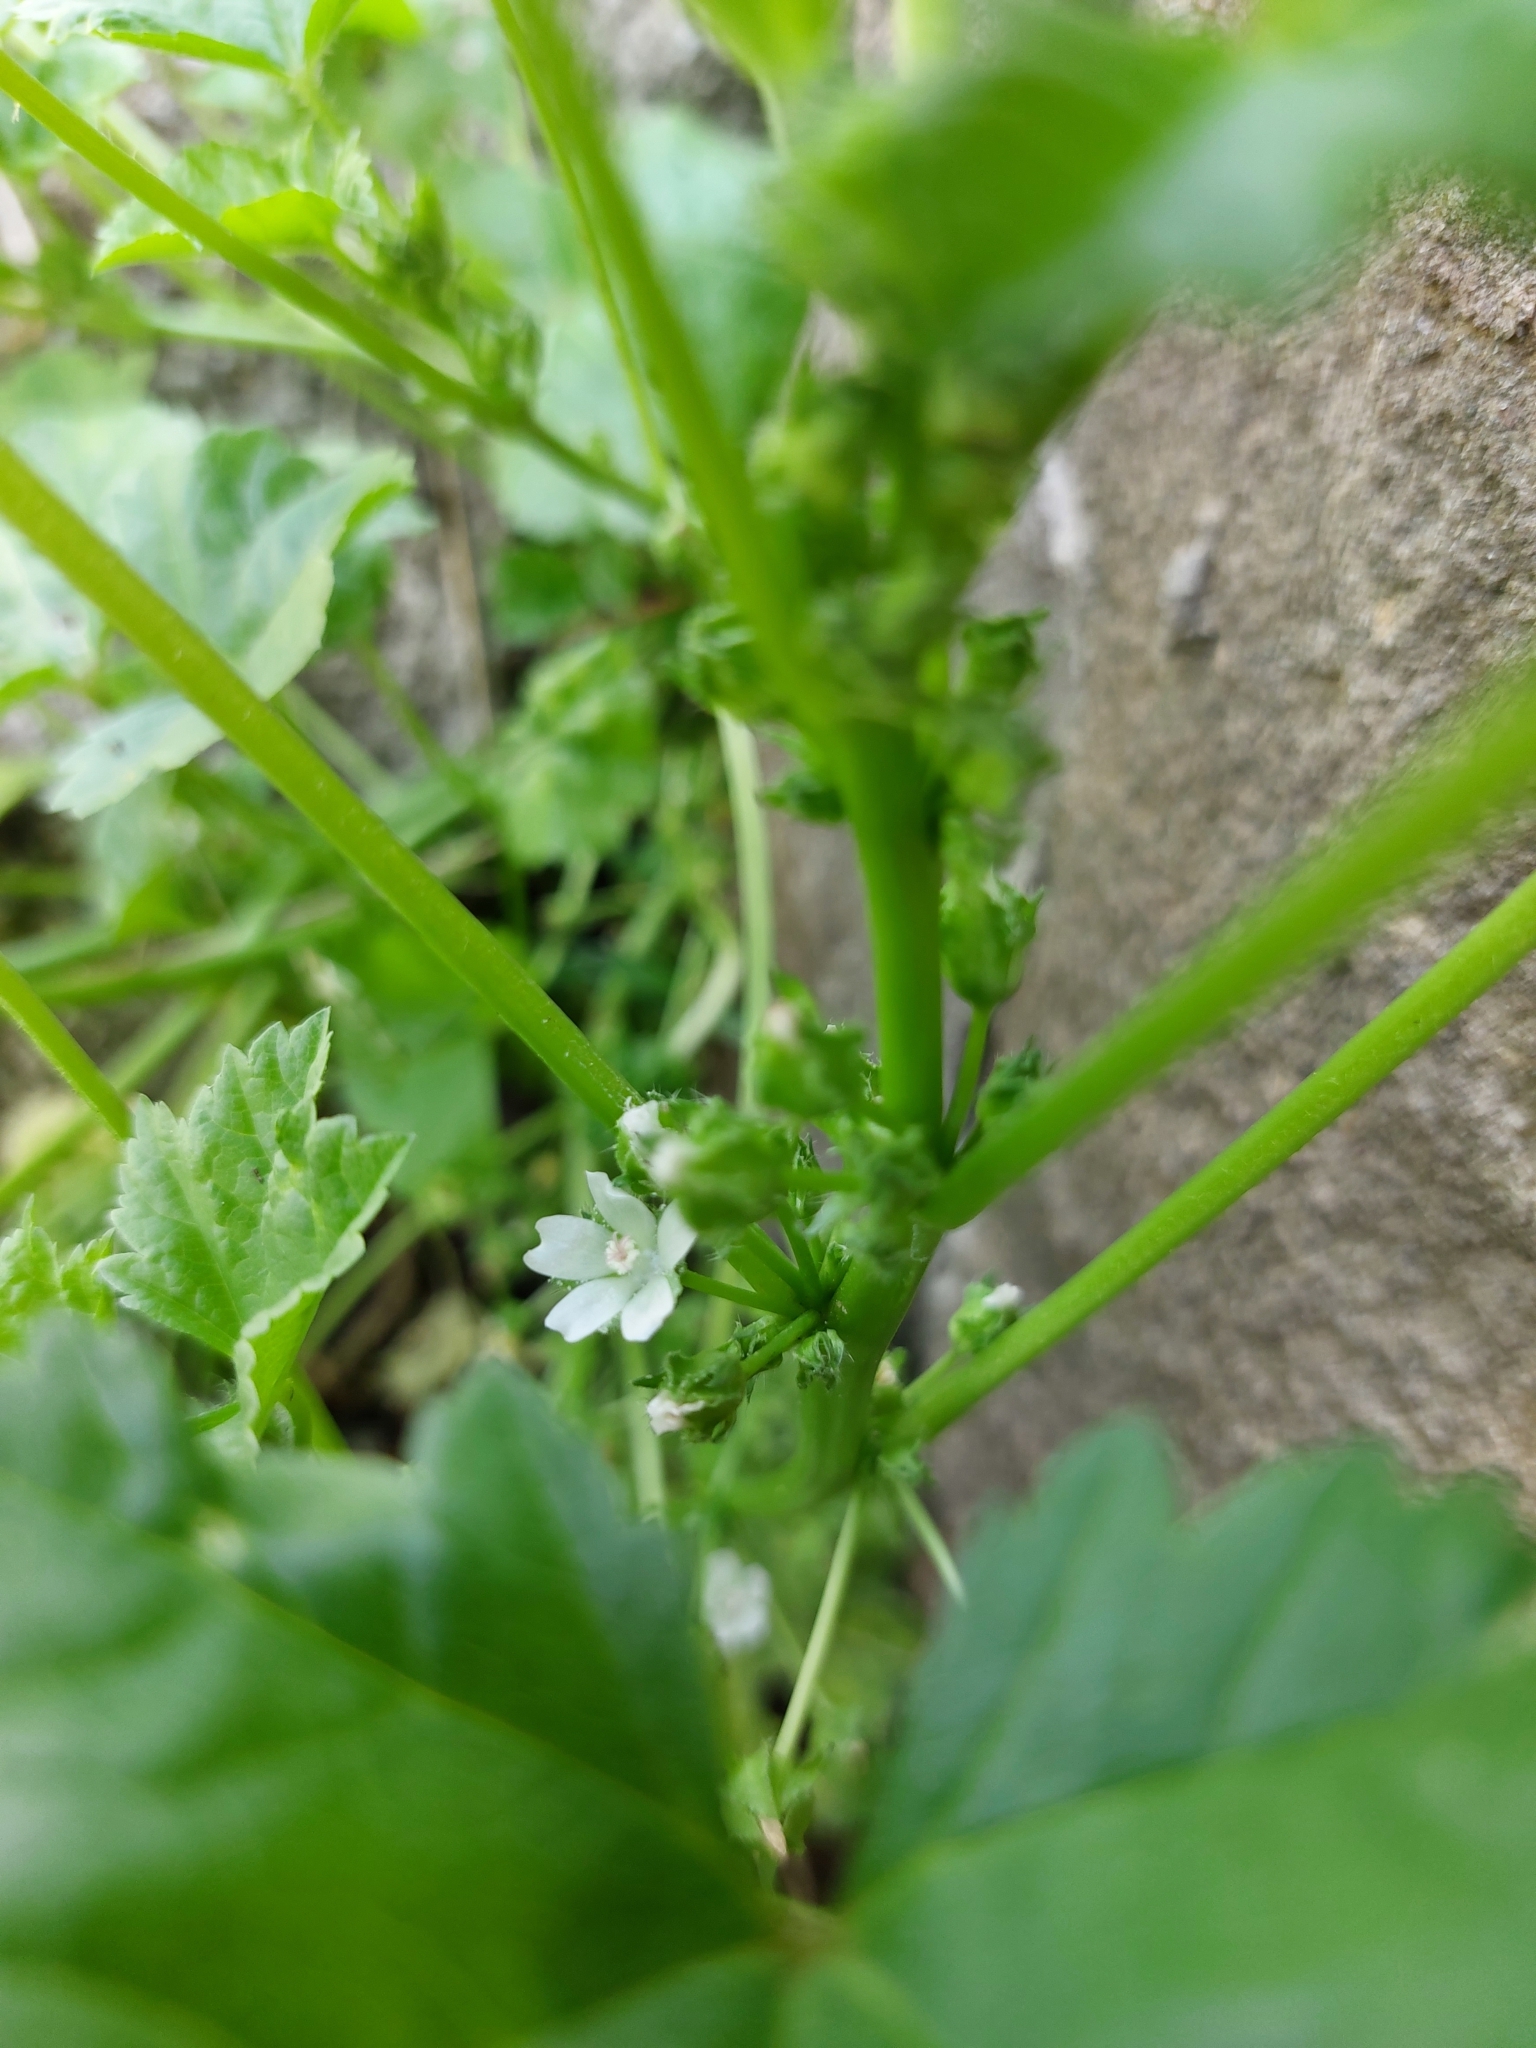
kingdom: Plantae
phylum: Tracheophyta
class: Magnoliopsida
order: Malvales
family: Malvaceae
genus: Malva
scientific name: Malva pusilla
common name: Small mallow
